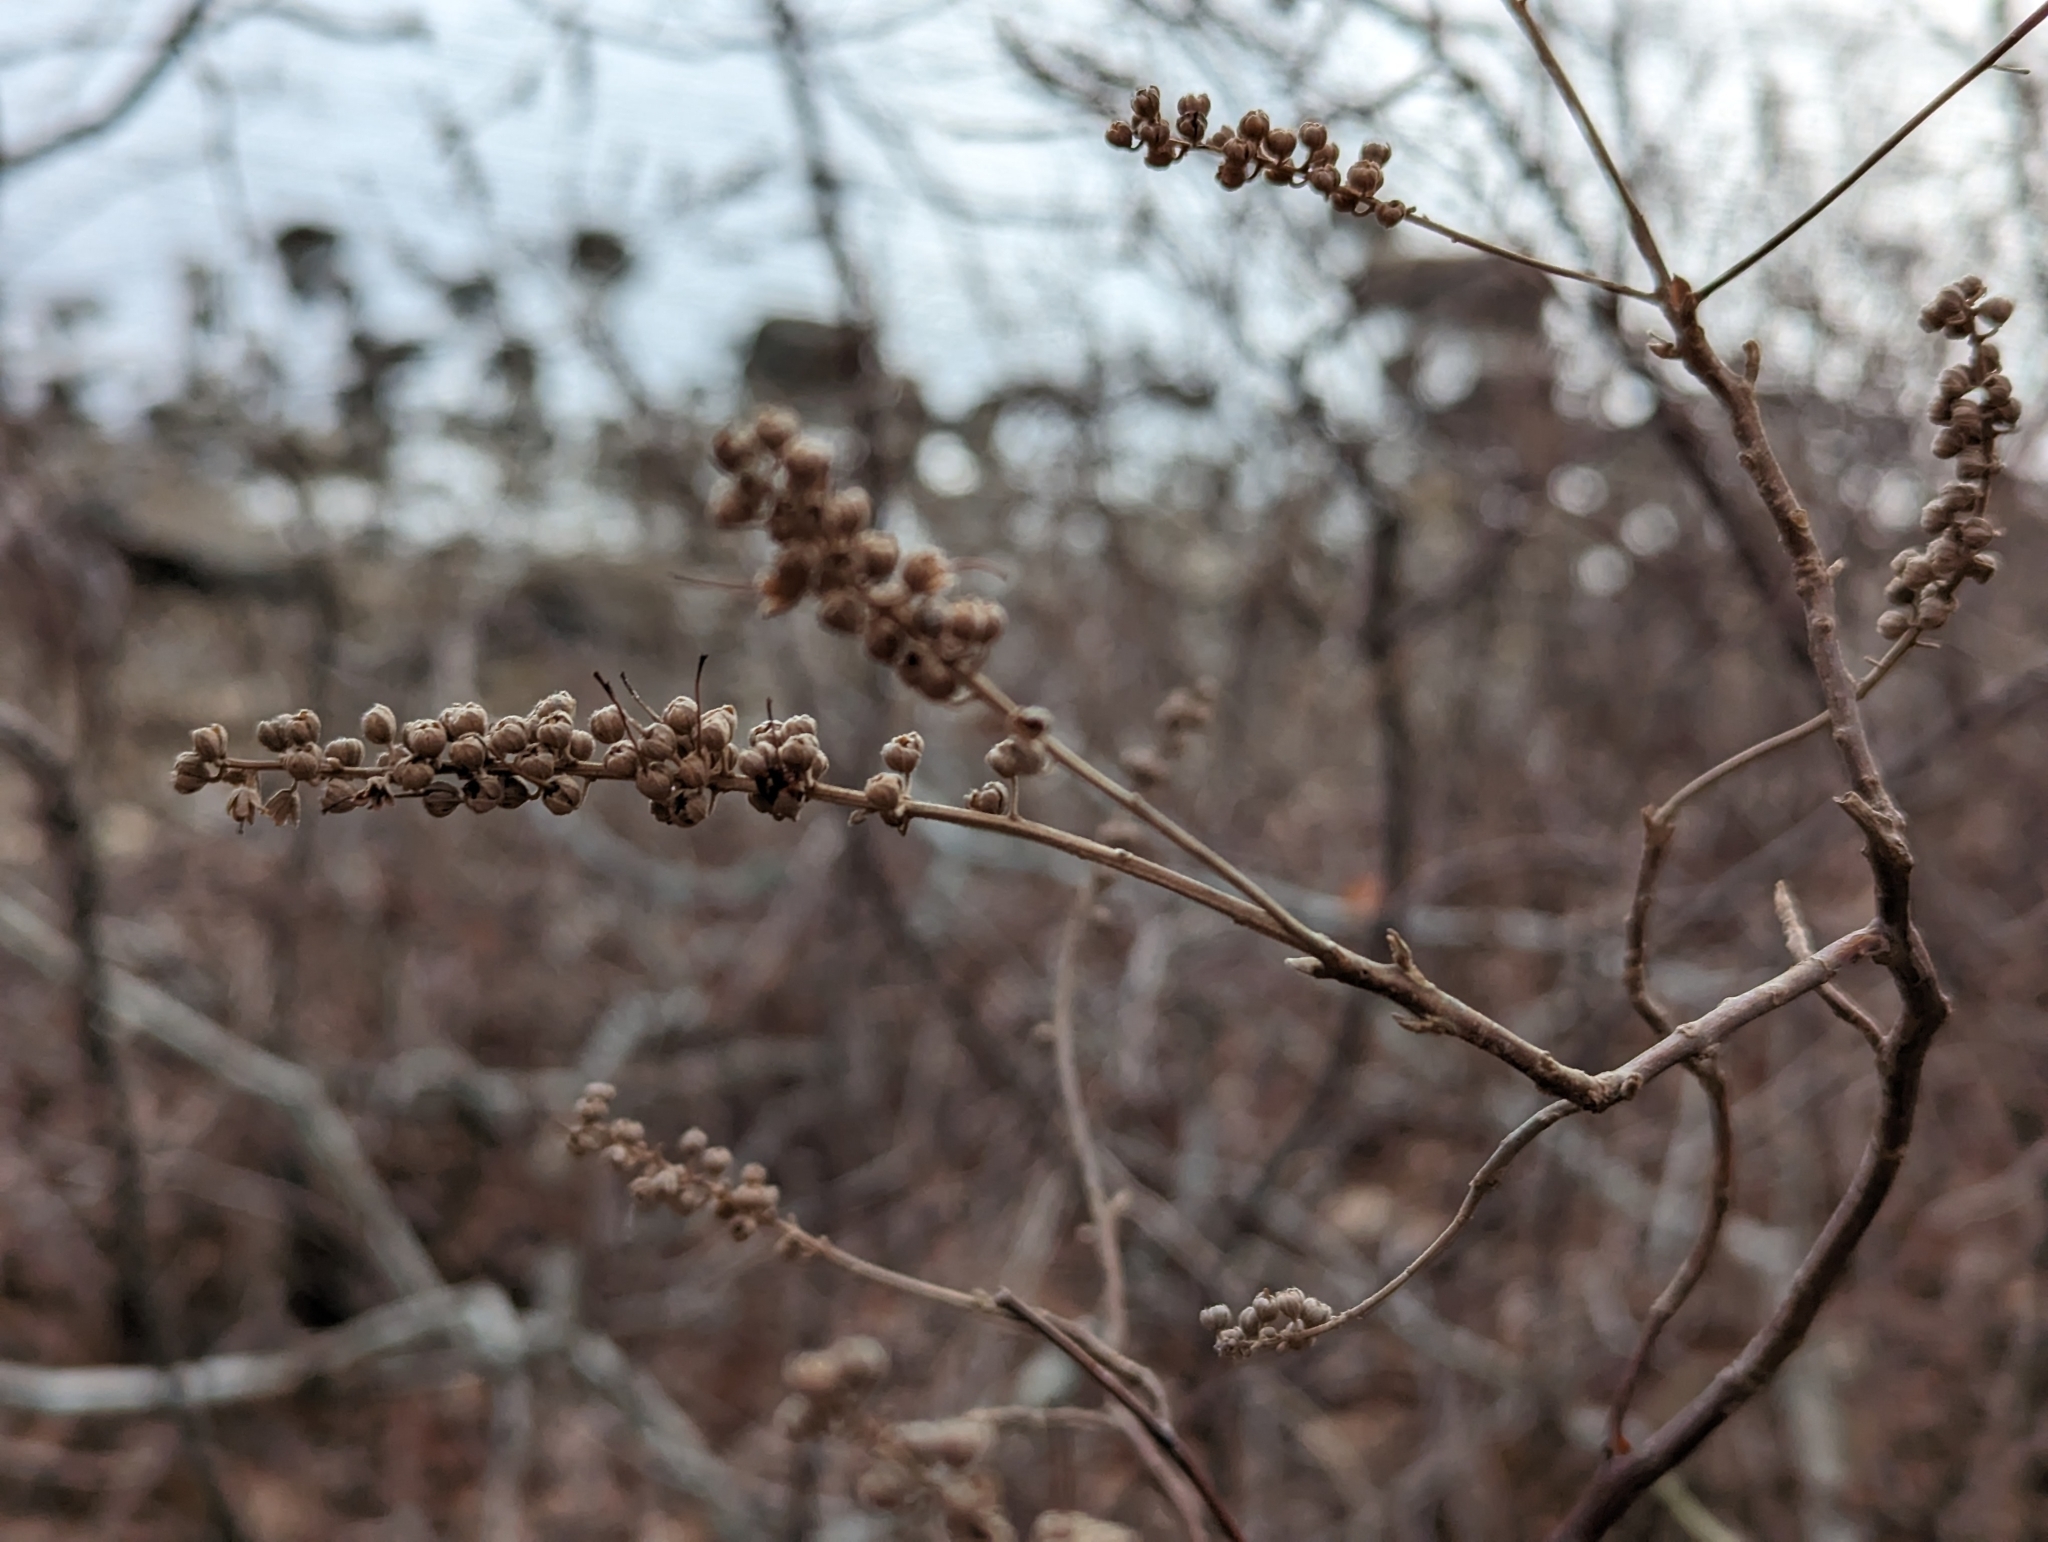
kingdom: Plantae
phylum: Tracheophyta
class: Magnoliopsida
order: Ericales
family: Clethraceae
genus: Clethra
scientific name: Clethra alnifolia
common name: Sweet pepperbush
